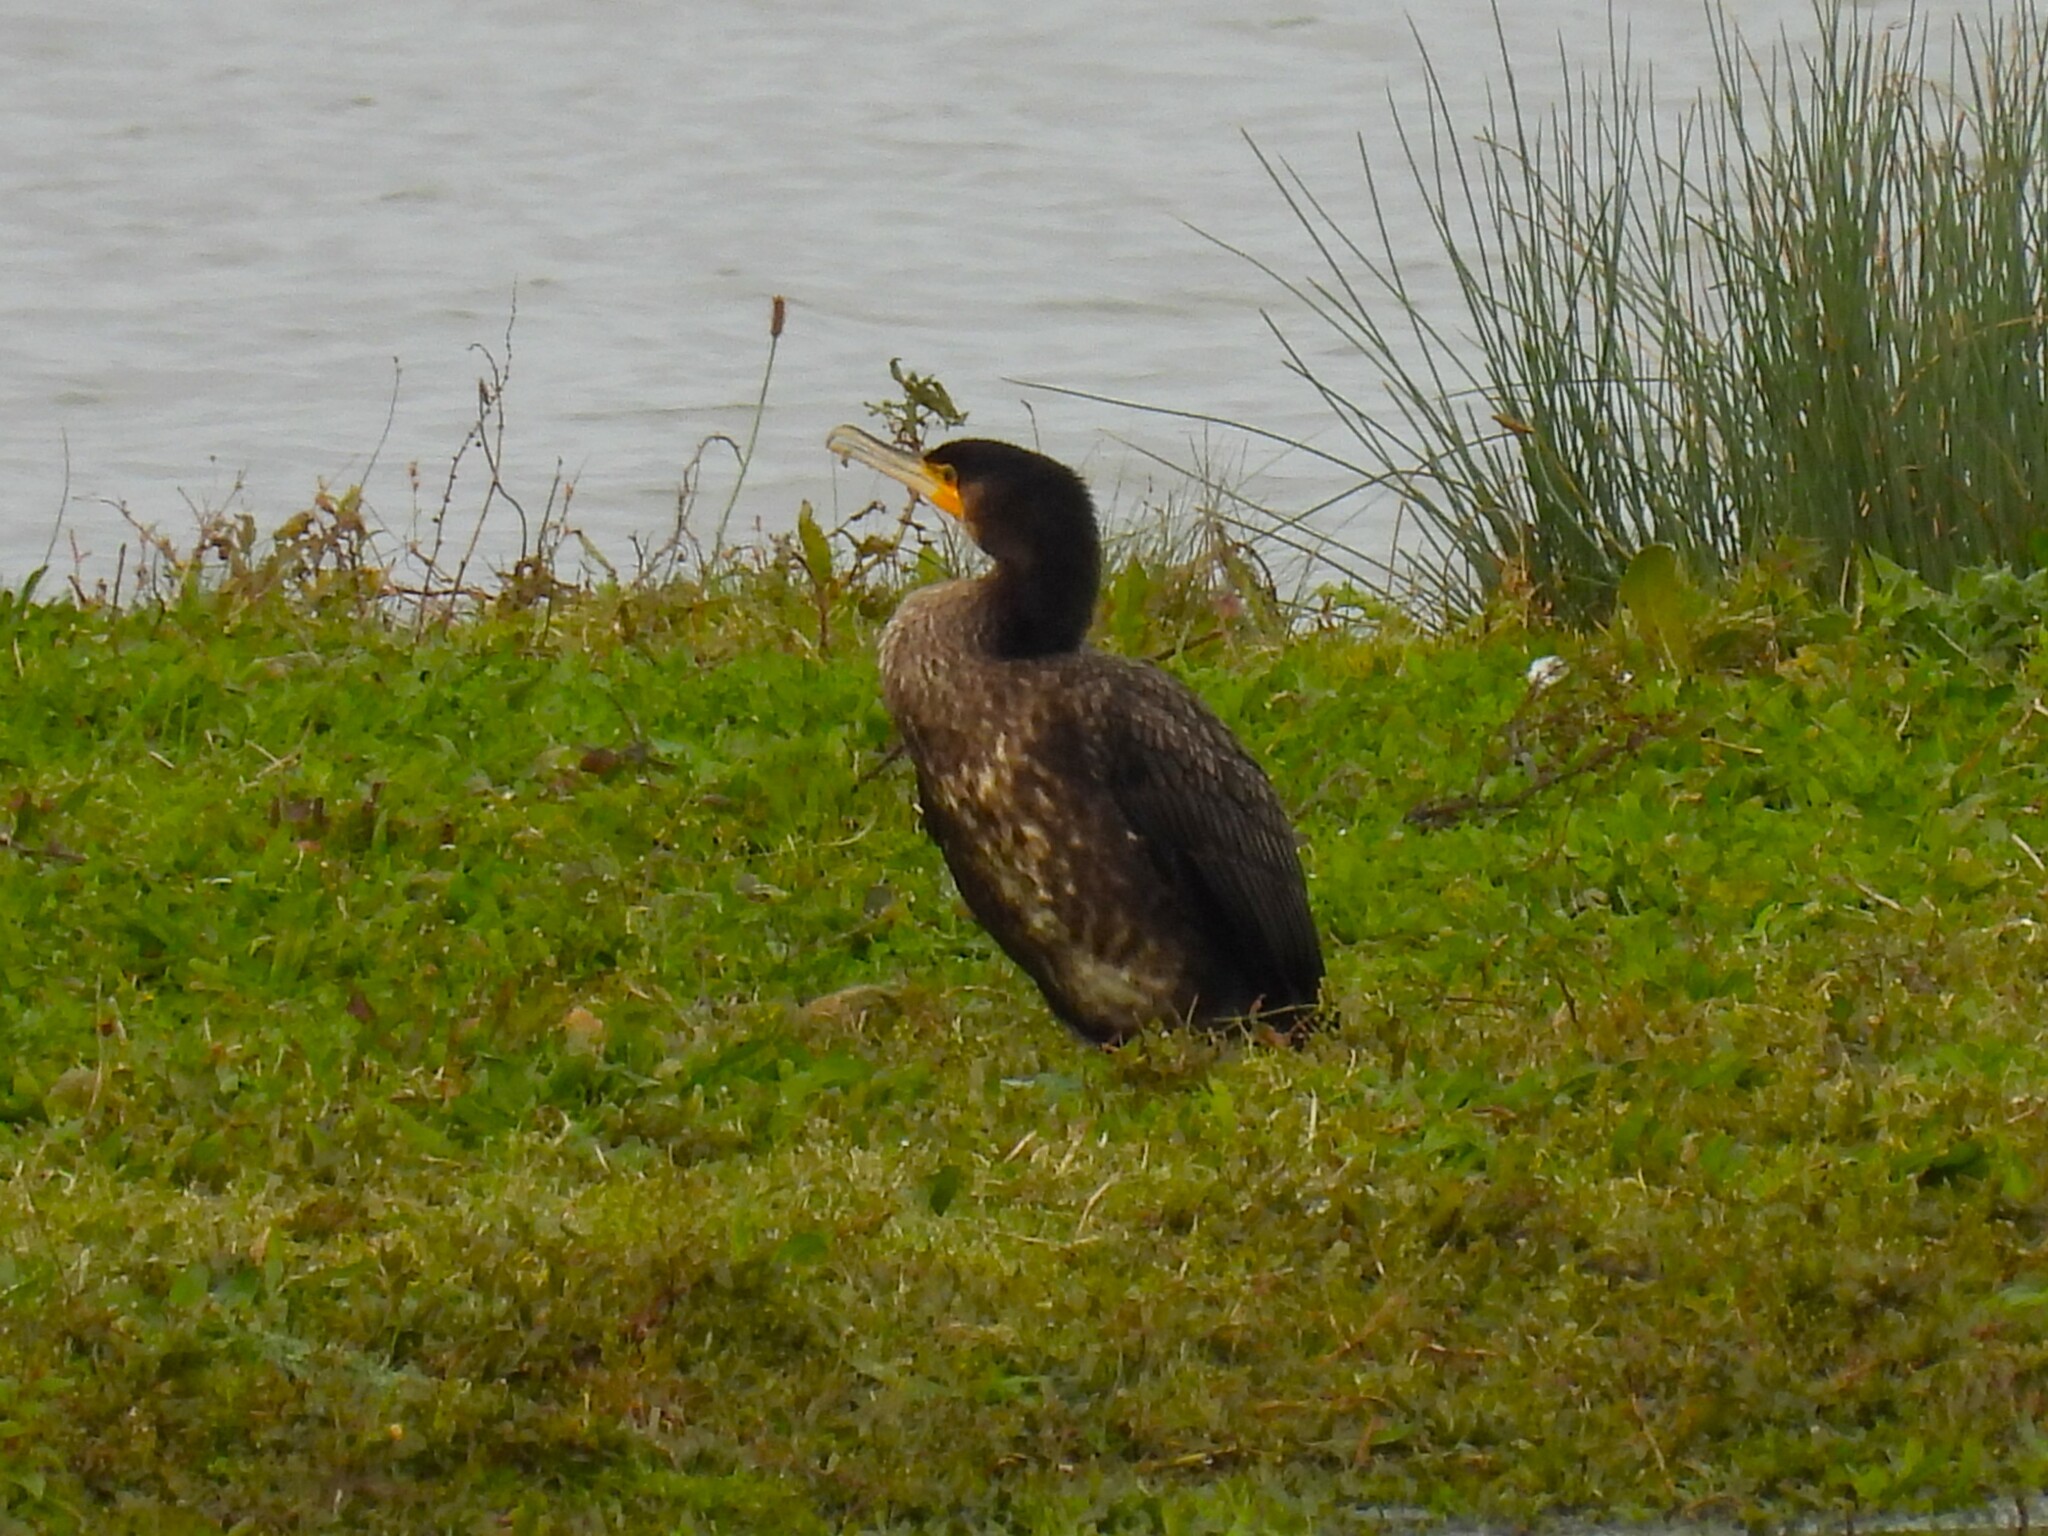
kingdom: Animalia
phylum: Chordata
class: Aves
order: Suliformes
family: Phalacrocoracidae
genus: Phalacrocorax
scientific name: Phalacrocorax carbo
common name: Great cormorant
